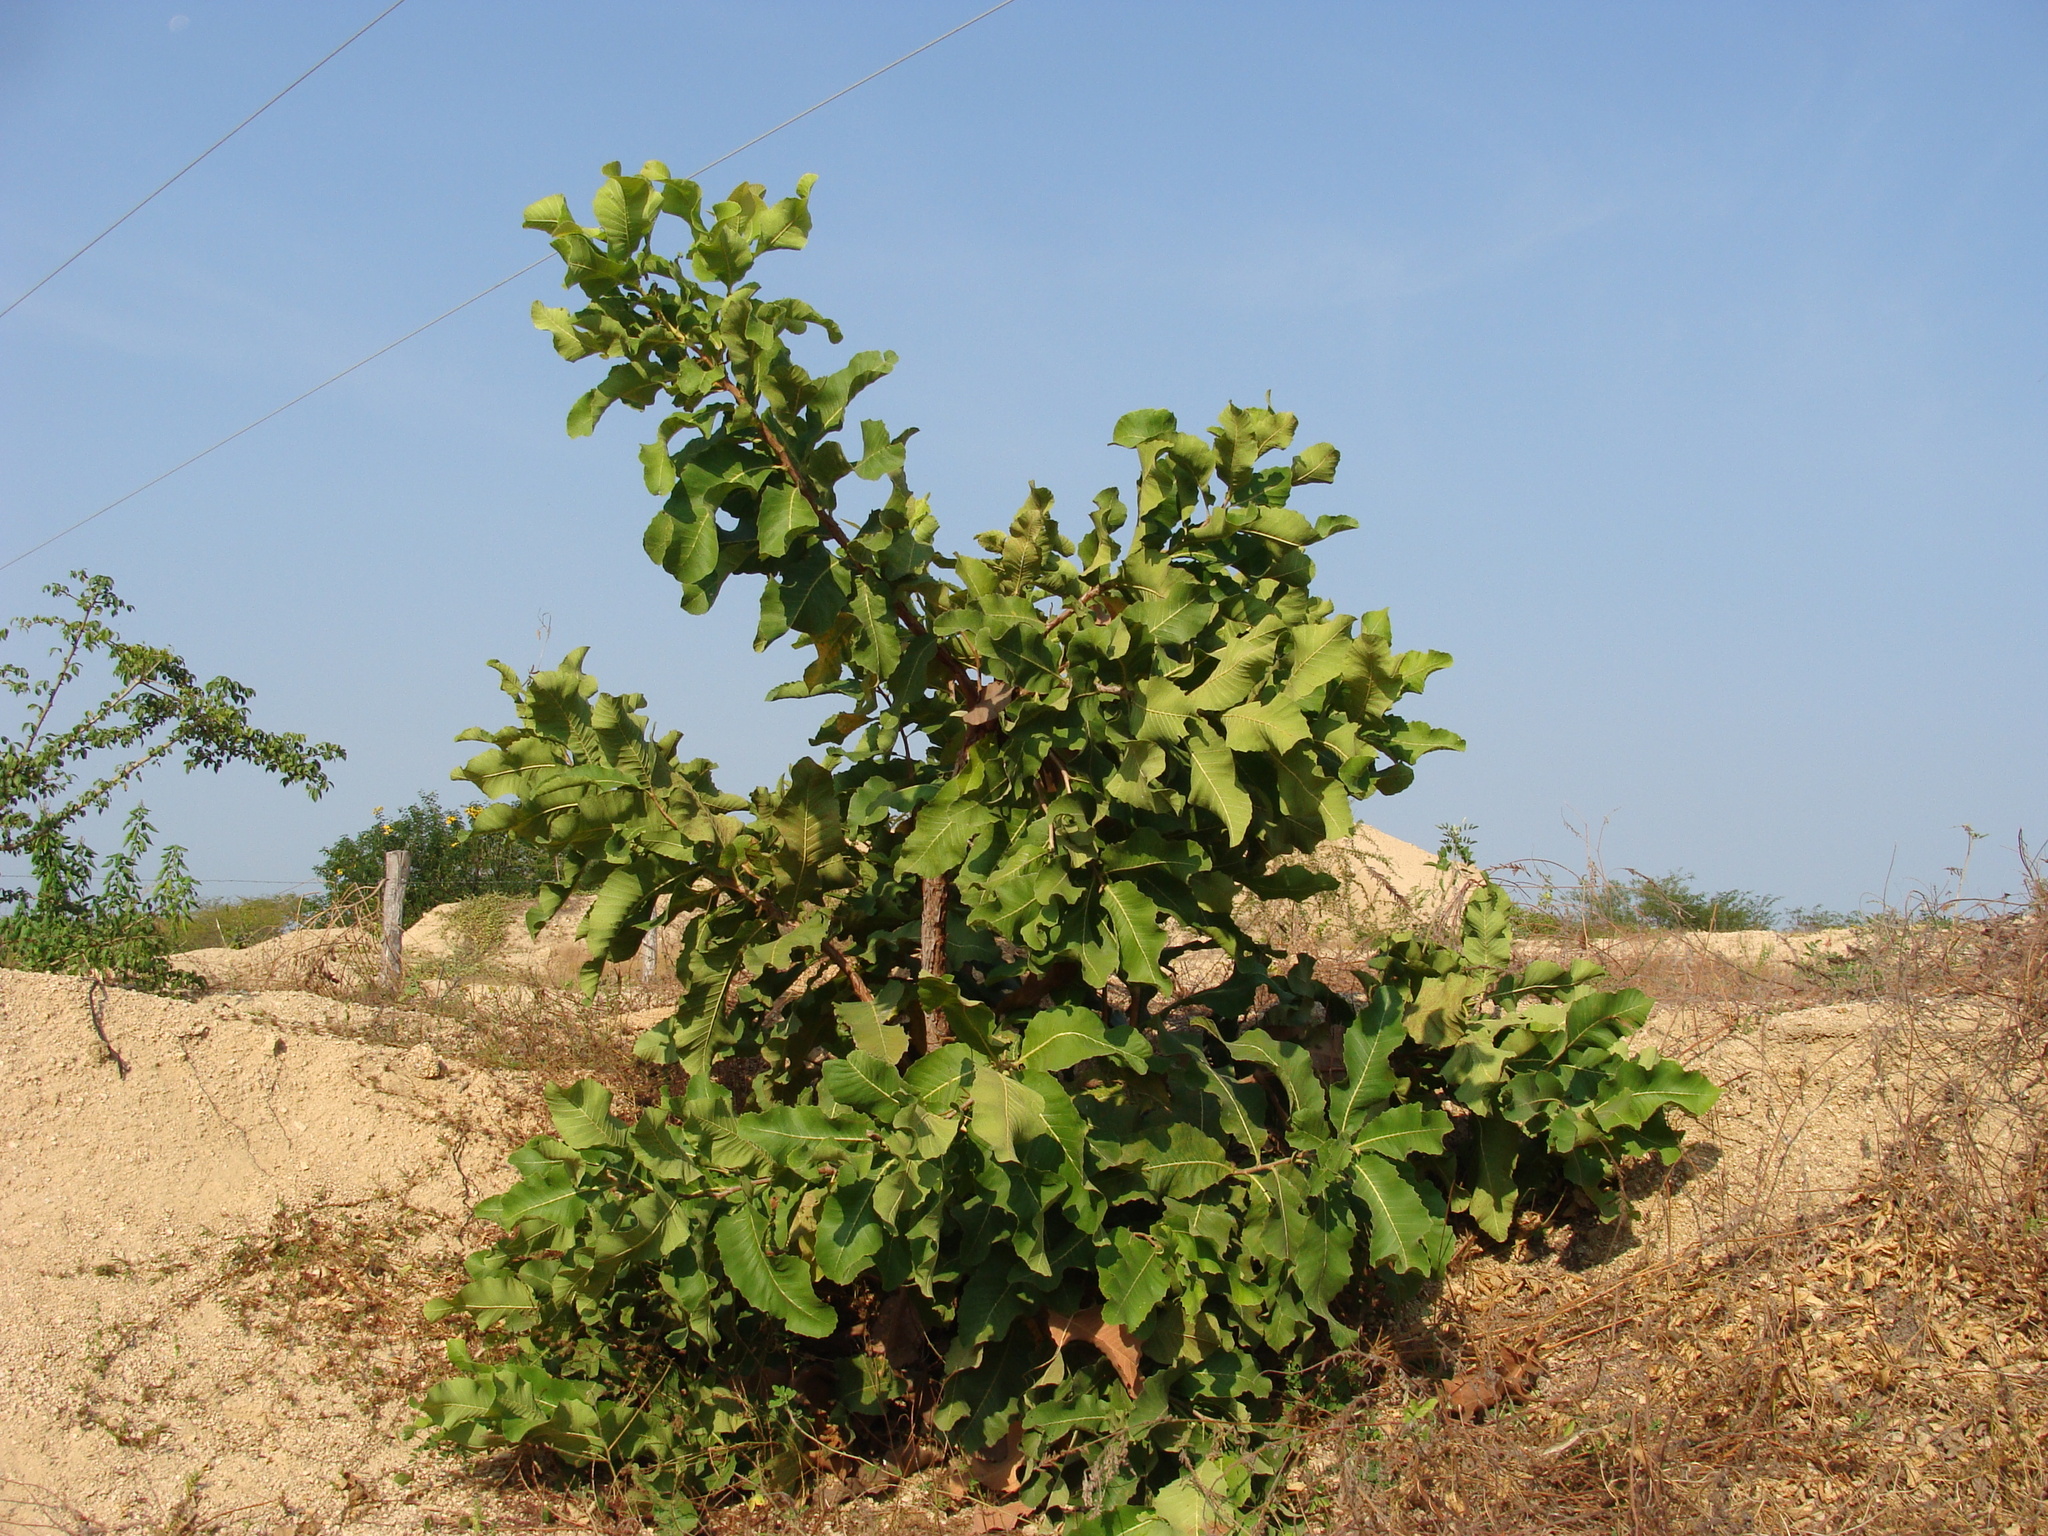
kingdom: Plantae
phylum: Tracheophyta
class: Magnoliopsida
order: Dilleniales
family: Dilleniaceae
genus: Curatella
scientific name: Curatella americana
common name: Sandpaper tree
